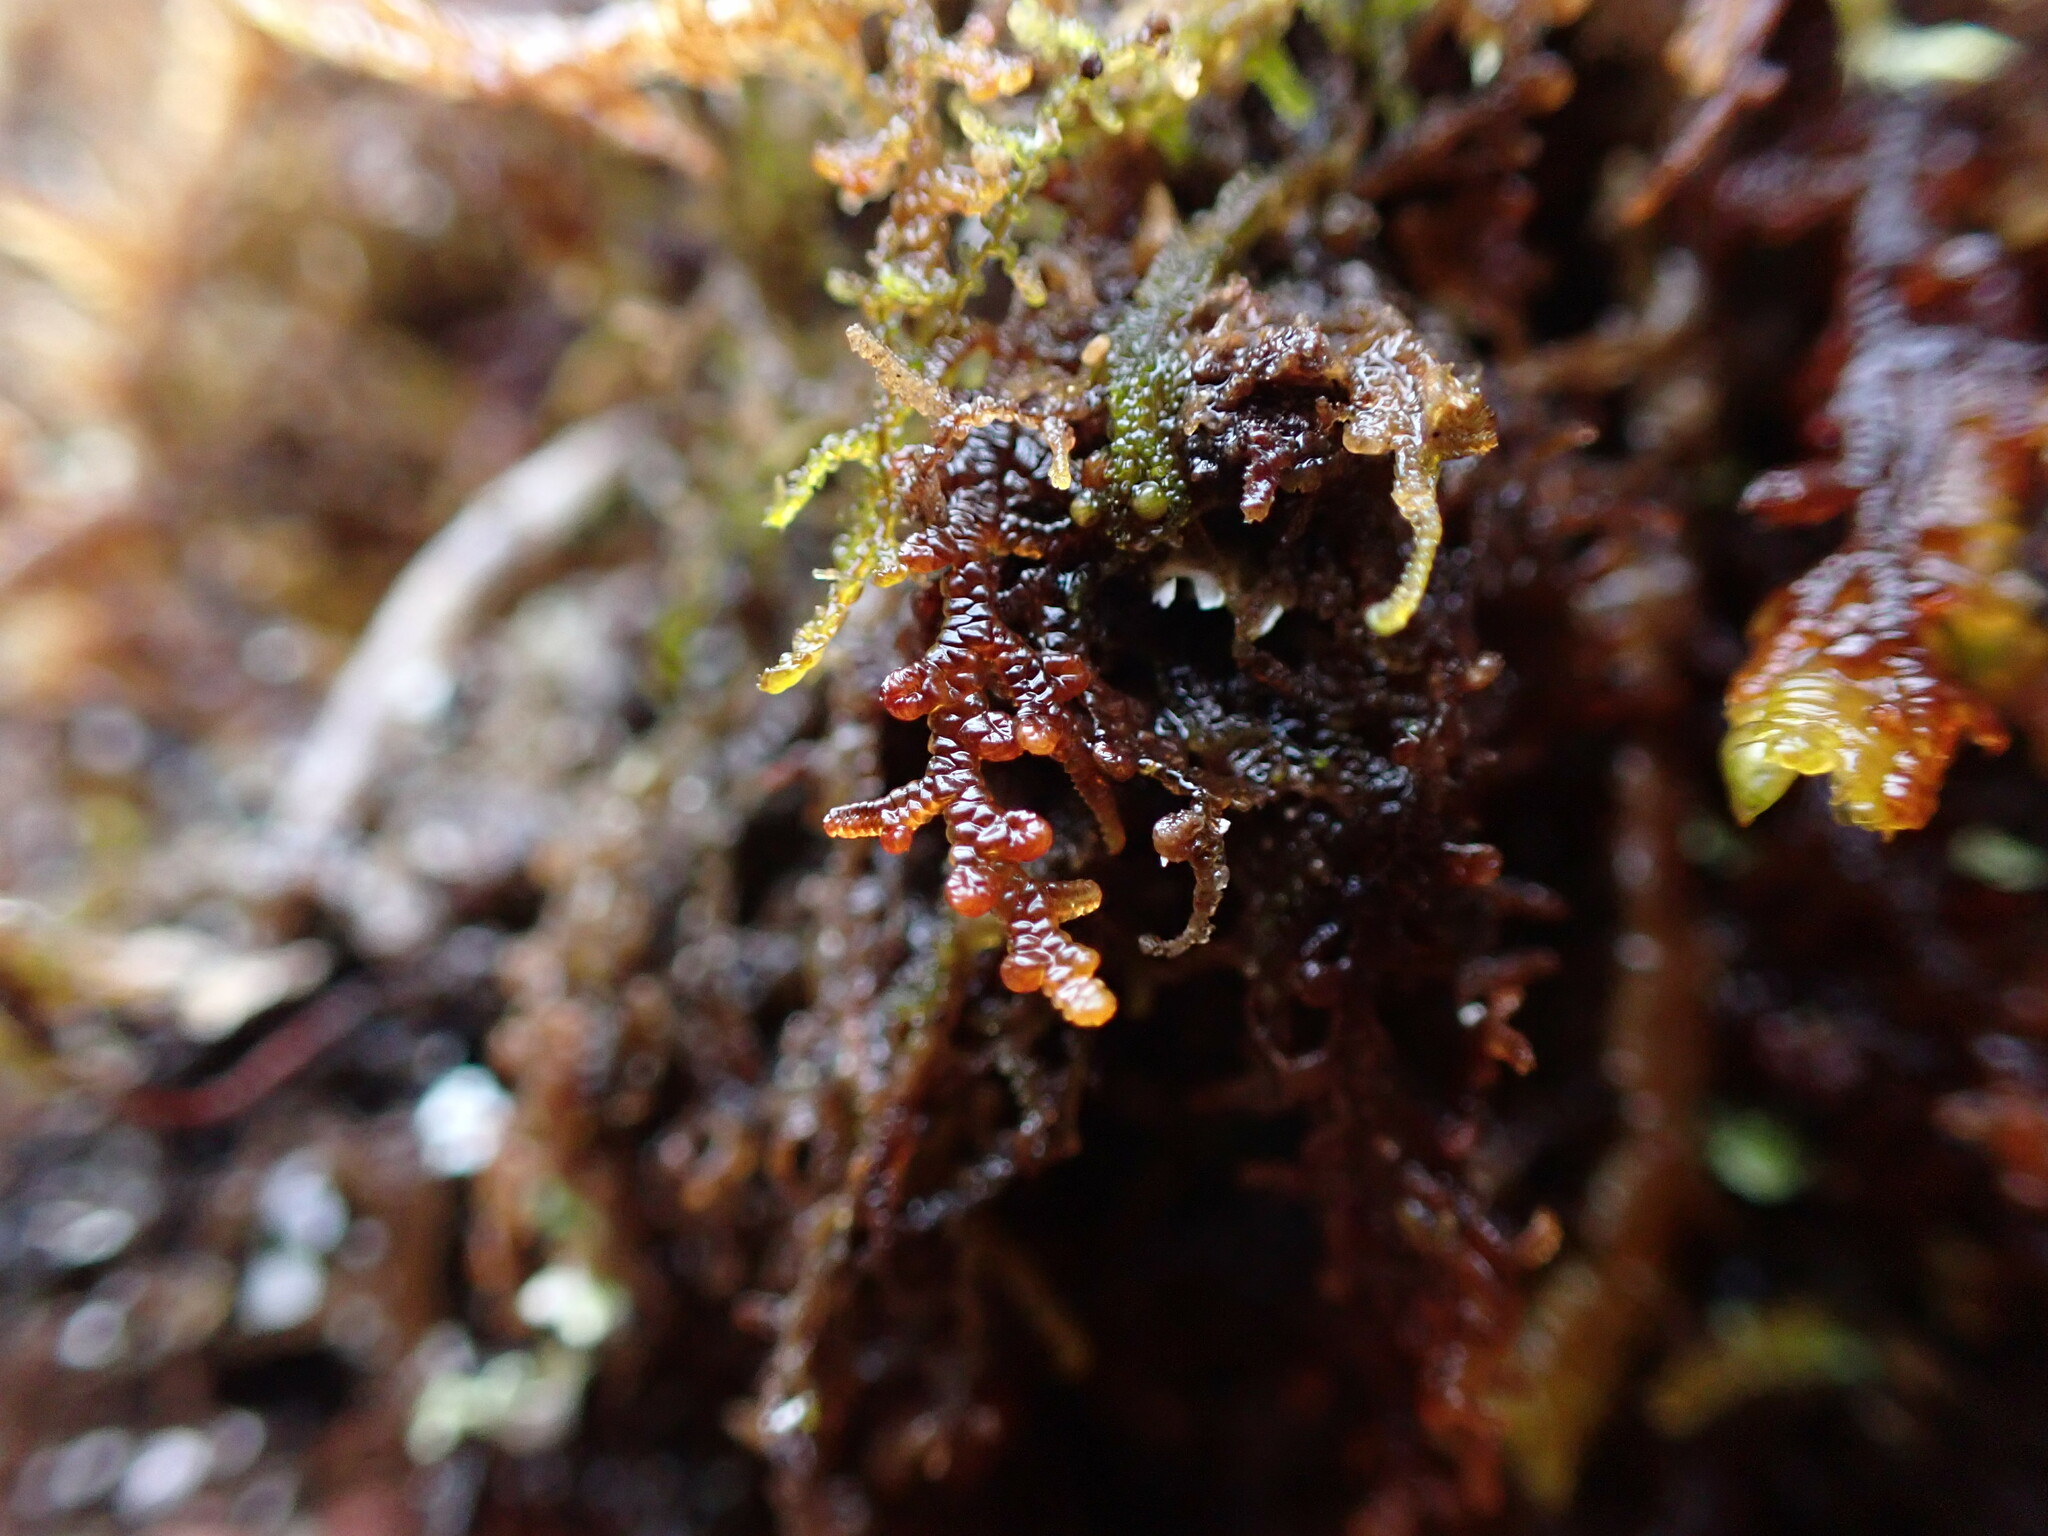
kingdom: Plantae
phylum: Marchantiophyta
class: Jungermanniopsida
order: Porellales
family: Frullaniaceae
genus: Frullania
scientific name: Frullania nisquallensis
